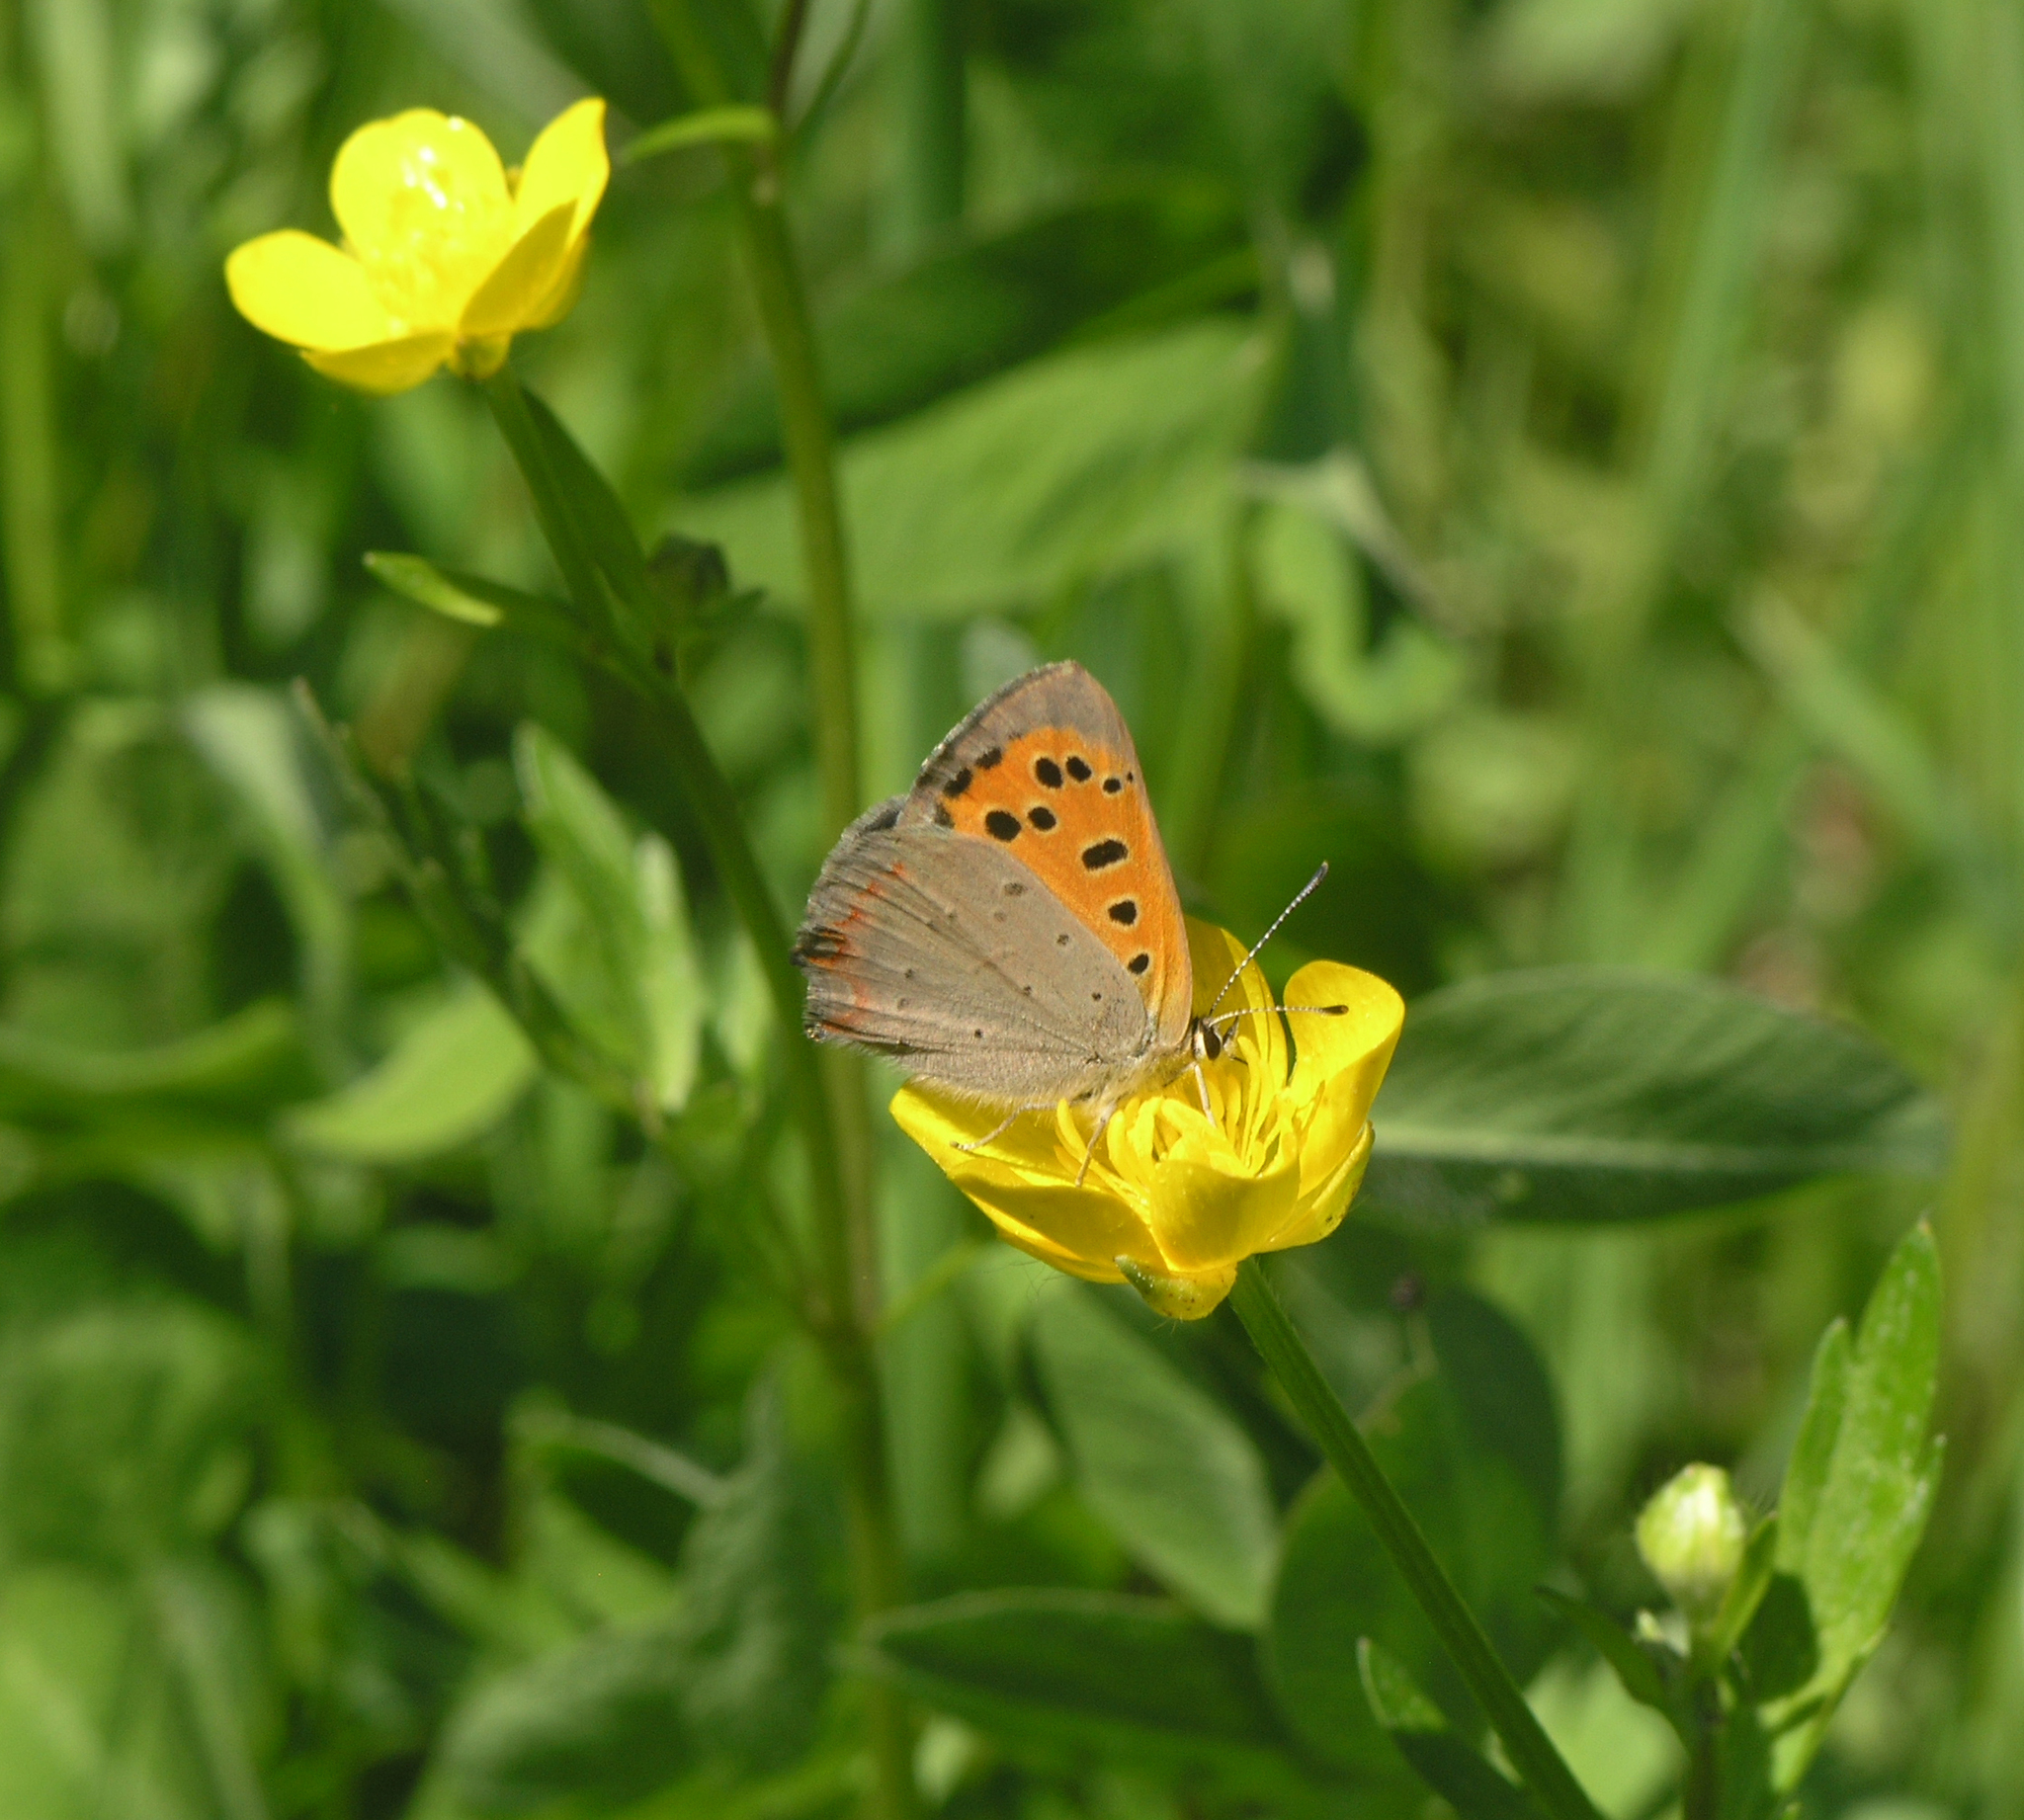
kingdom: Plantae
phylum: Tracheophyta
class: Magnoliopsida
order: Ranunculales
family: Ranunculaceae
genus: Ranunculus
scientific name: Ranunculus repens
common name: Creeping buttercup
